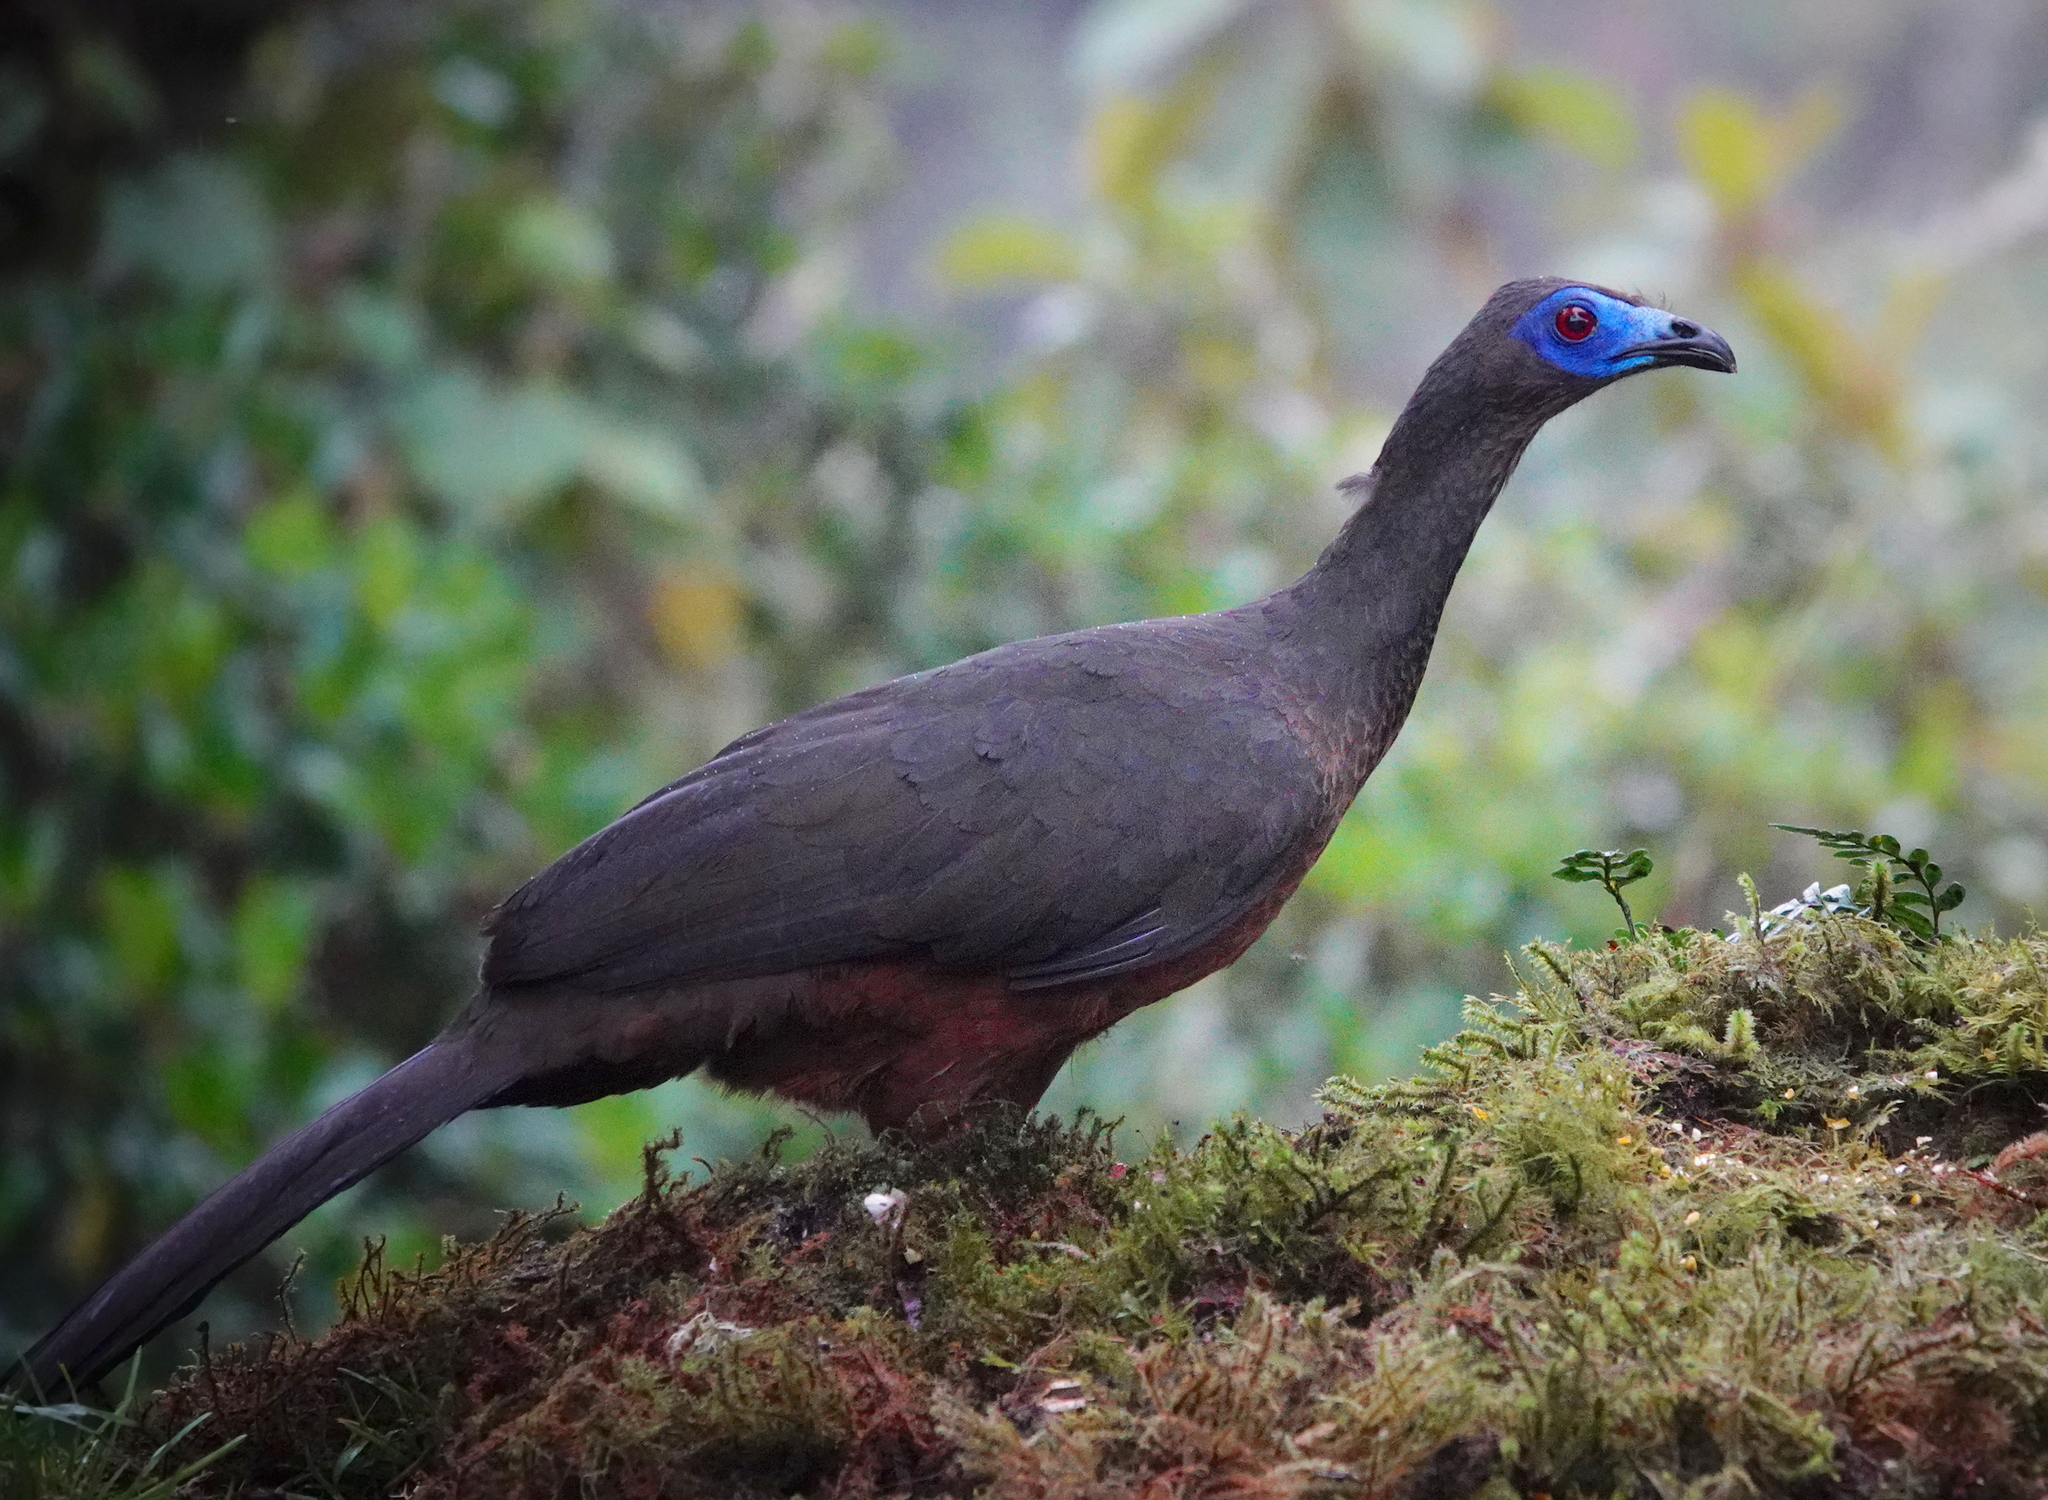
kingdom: Animalia
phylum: Chordata
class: Aves
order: Galliformes
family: Cracidae
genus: Chamaepetes
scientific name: Chamaepetes goudotii
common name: Sickle-winged guan
